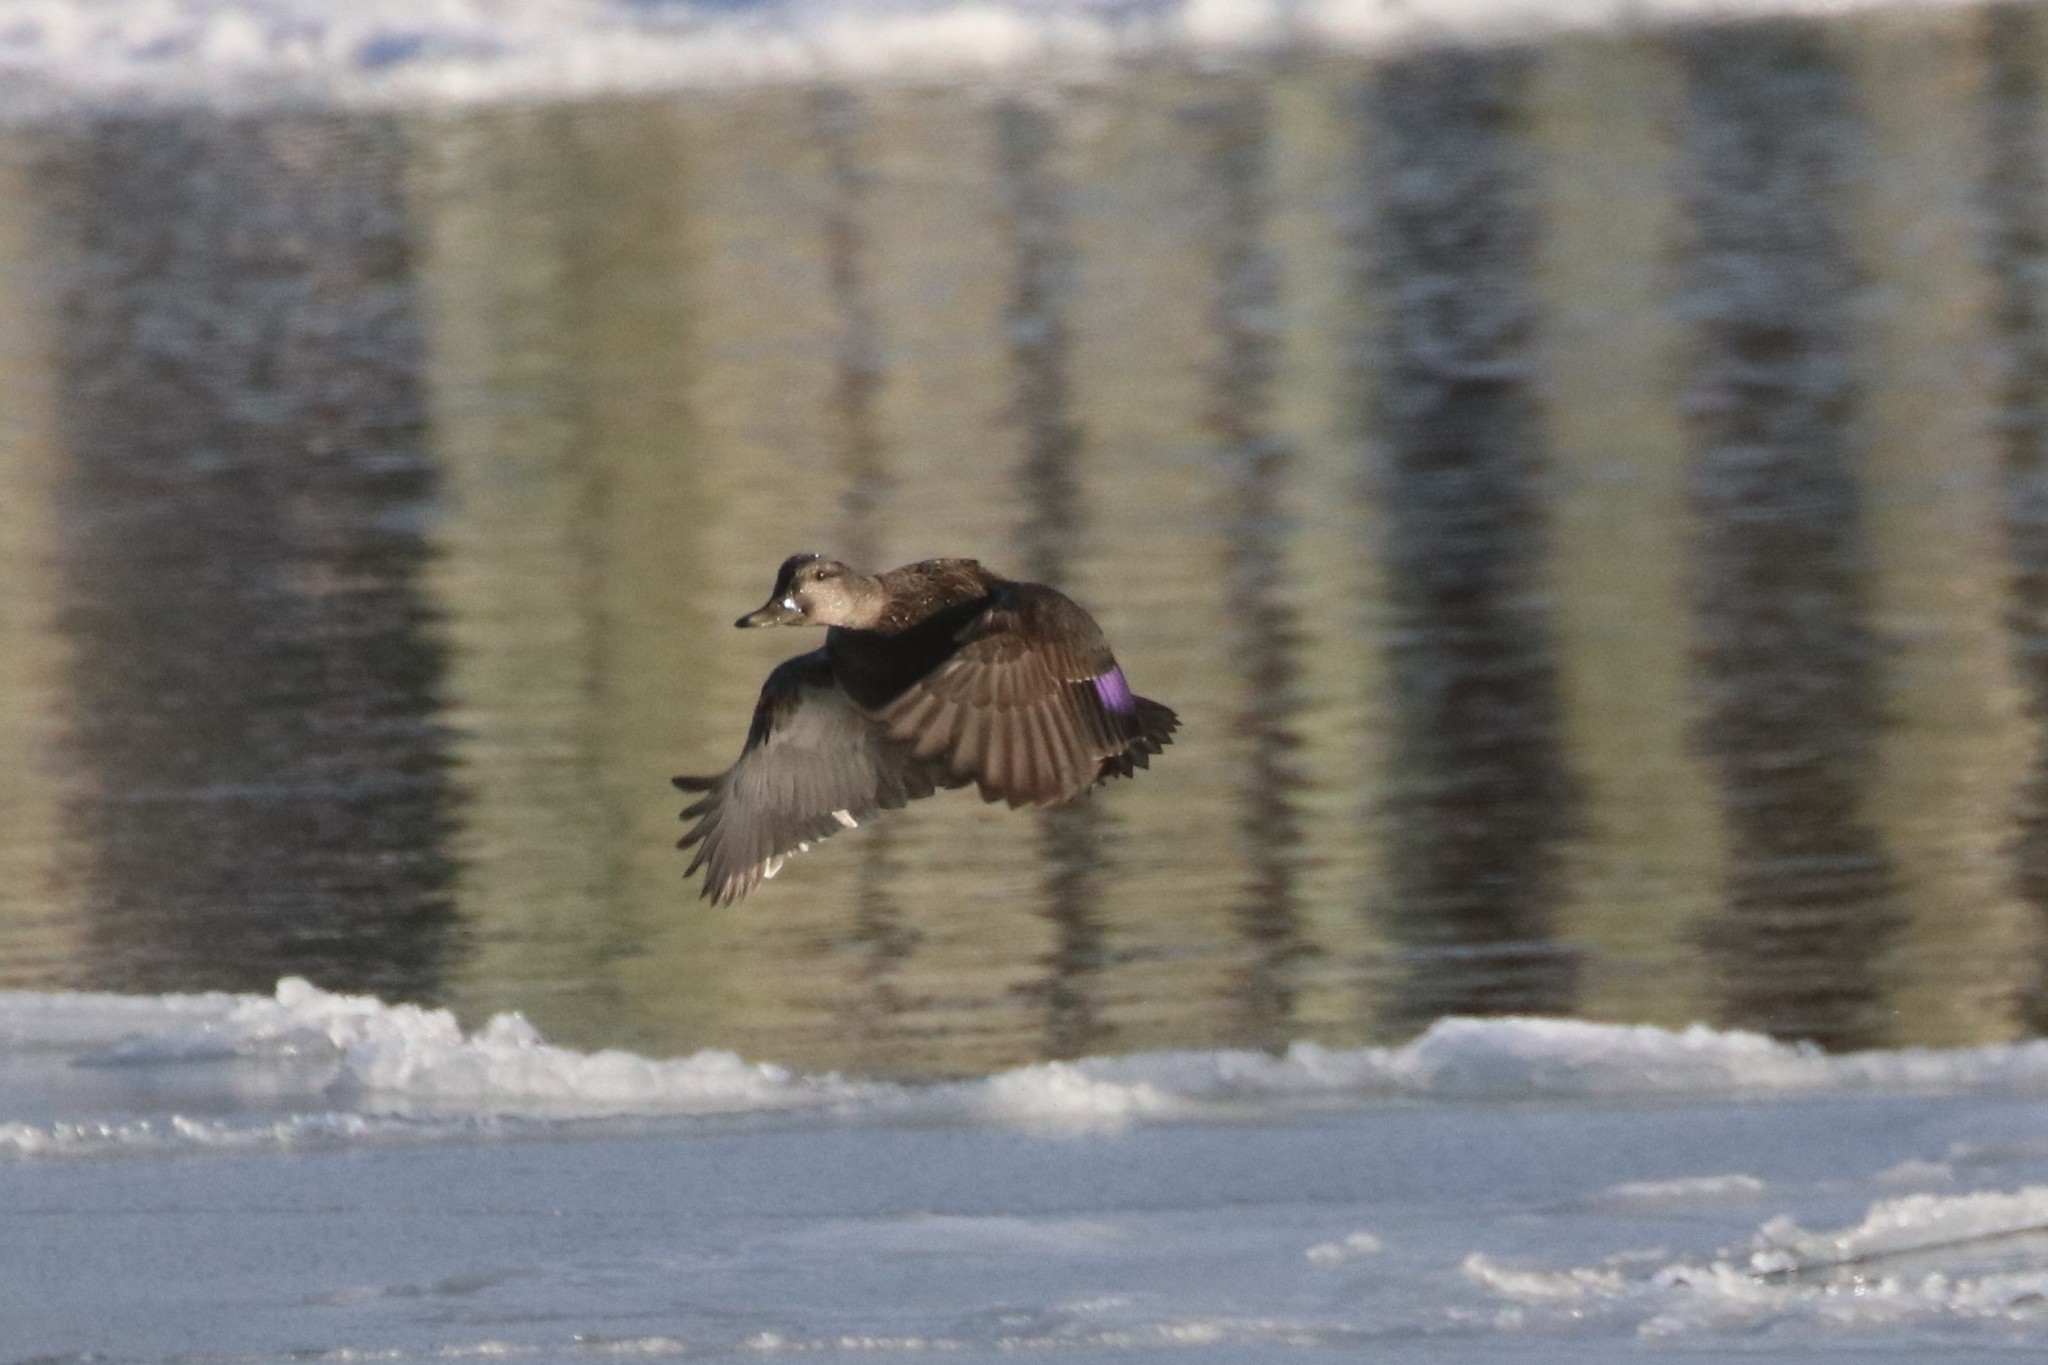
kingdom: Animalia
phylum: Chordata
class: Aves
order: Anseriformes
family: Anatidae
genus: Anas
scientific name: Anas rubripes
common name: American black duck
